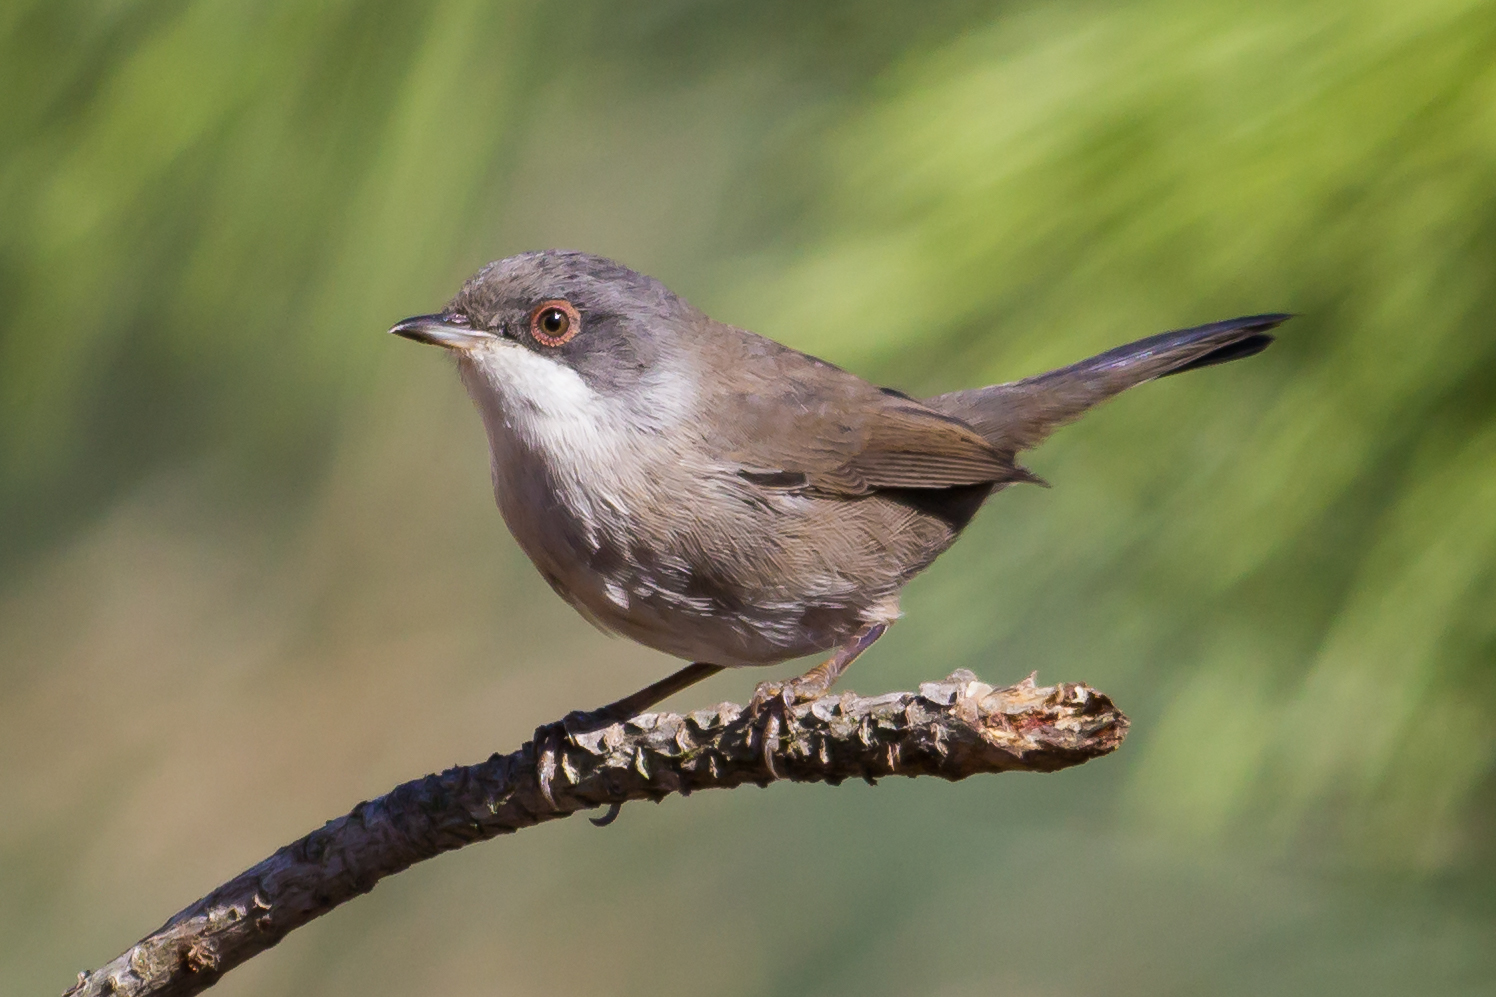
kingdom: Animalia
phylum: Chordata
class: Aves
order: Passeriformes
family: Sylviidae
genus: Curruca
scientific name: Curruca melanocephala
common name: Sardinian warbler
